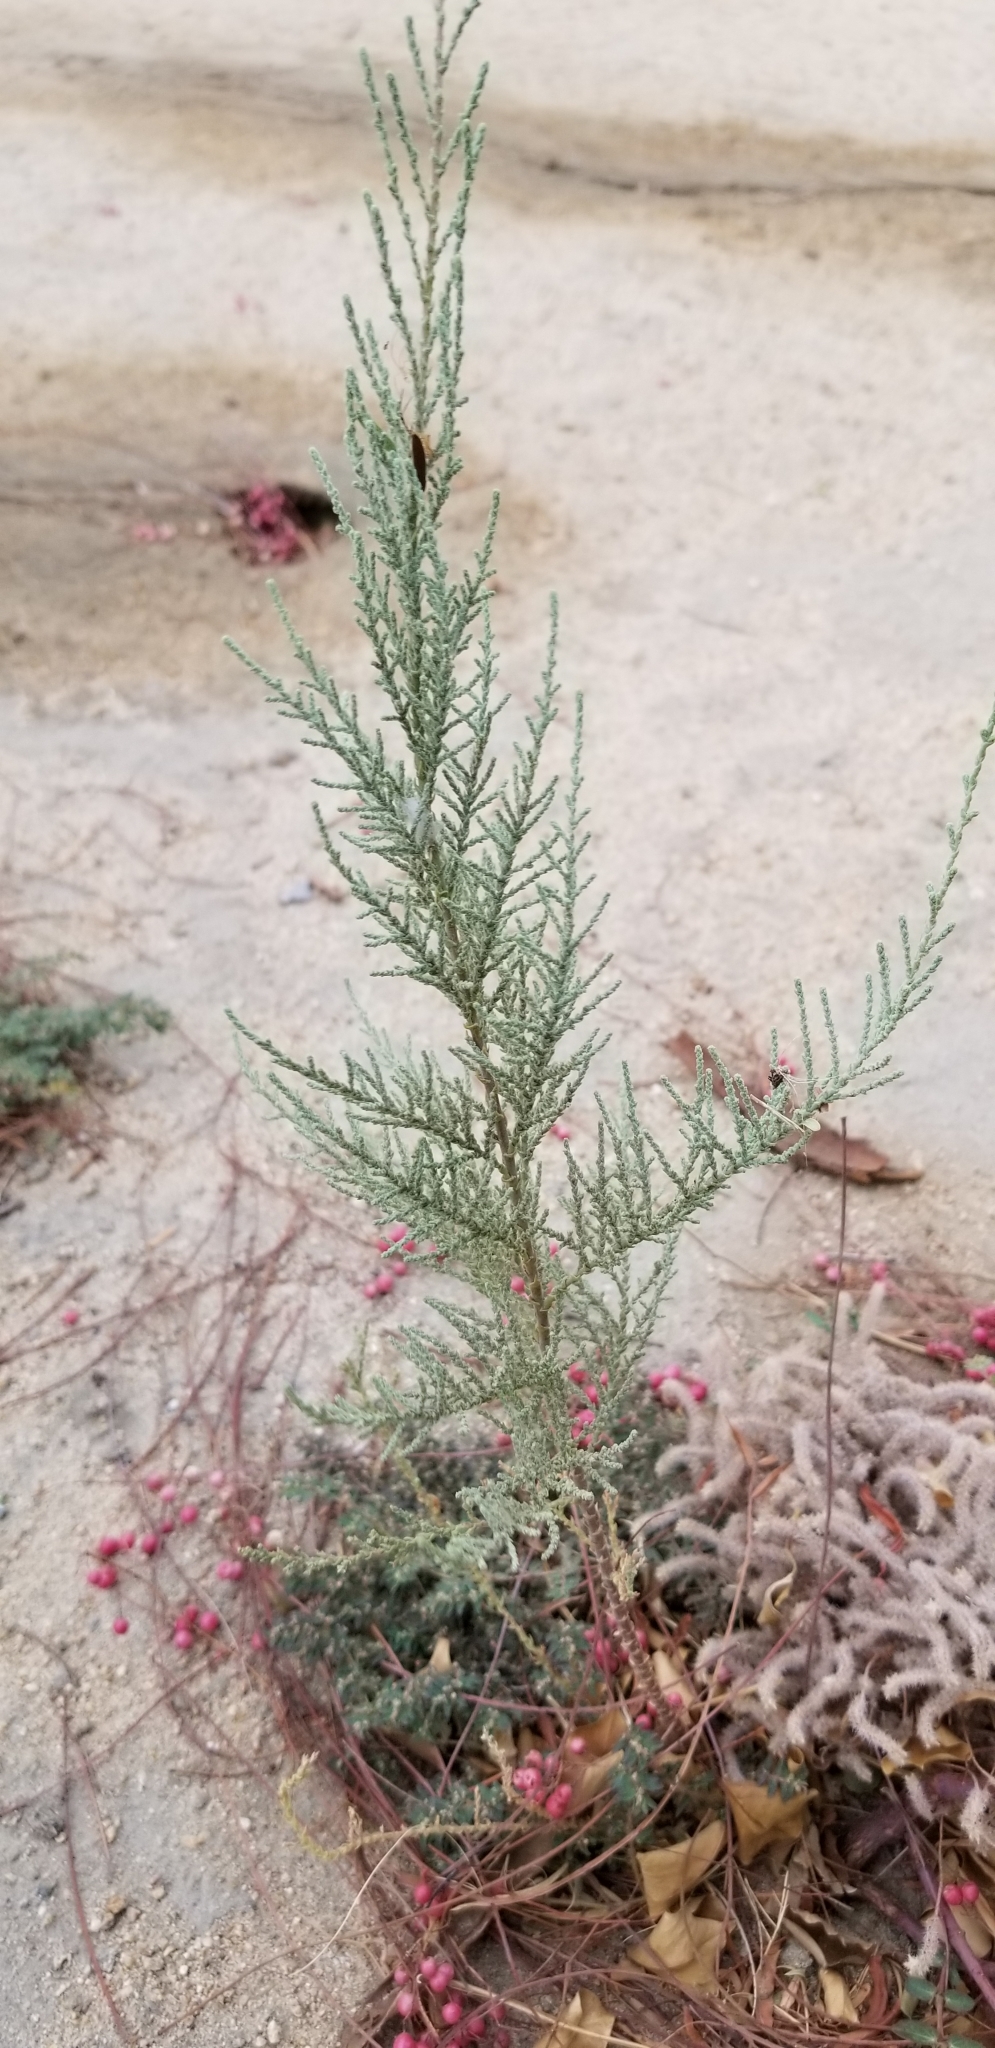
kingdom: Plantae
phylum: Tracheophyta
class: Magnoliopsida
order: Caryophyllales
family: Tamaricaceae
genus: Tamarix
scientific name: Tamarix ramosissima
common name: Pink tamarisk
